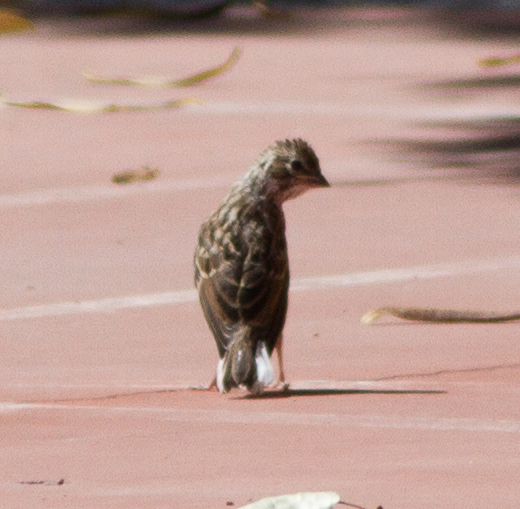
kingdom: Animalia
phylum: Chordata
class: Aves
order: Passeriformes
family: Passerellidae
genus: Chondestes
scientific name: Chondestes grammacus
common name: Lark sparrow
